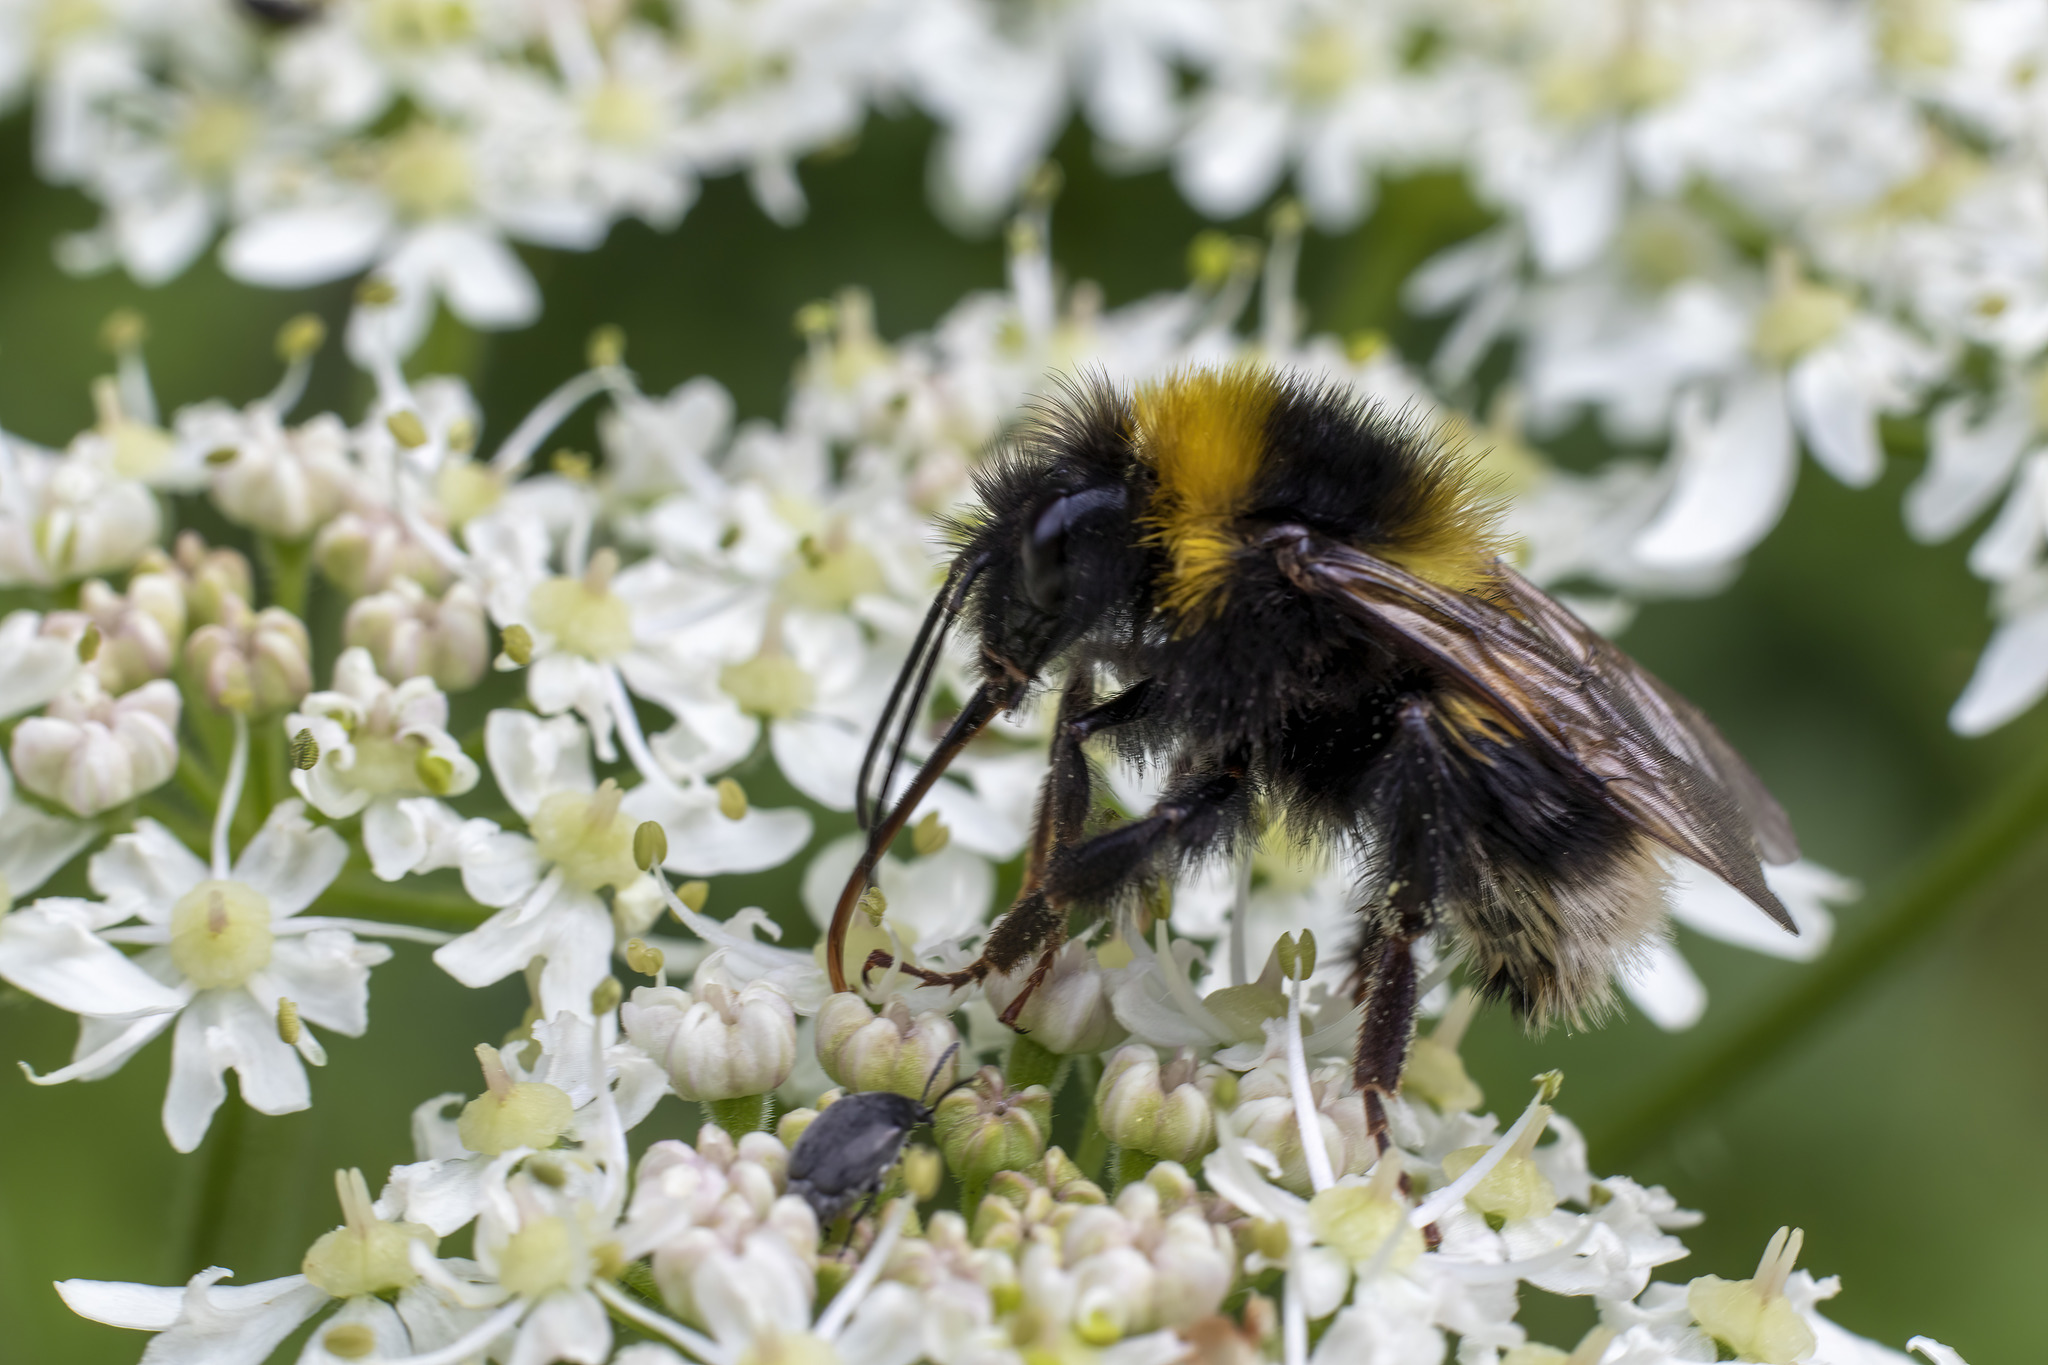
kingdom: Animalia
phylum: Arthropoda
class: Insecta
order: Hymenoptera
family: Apidae
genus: Bombus
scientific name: Bombus hortorum
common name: Garden bumblebee
